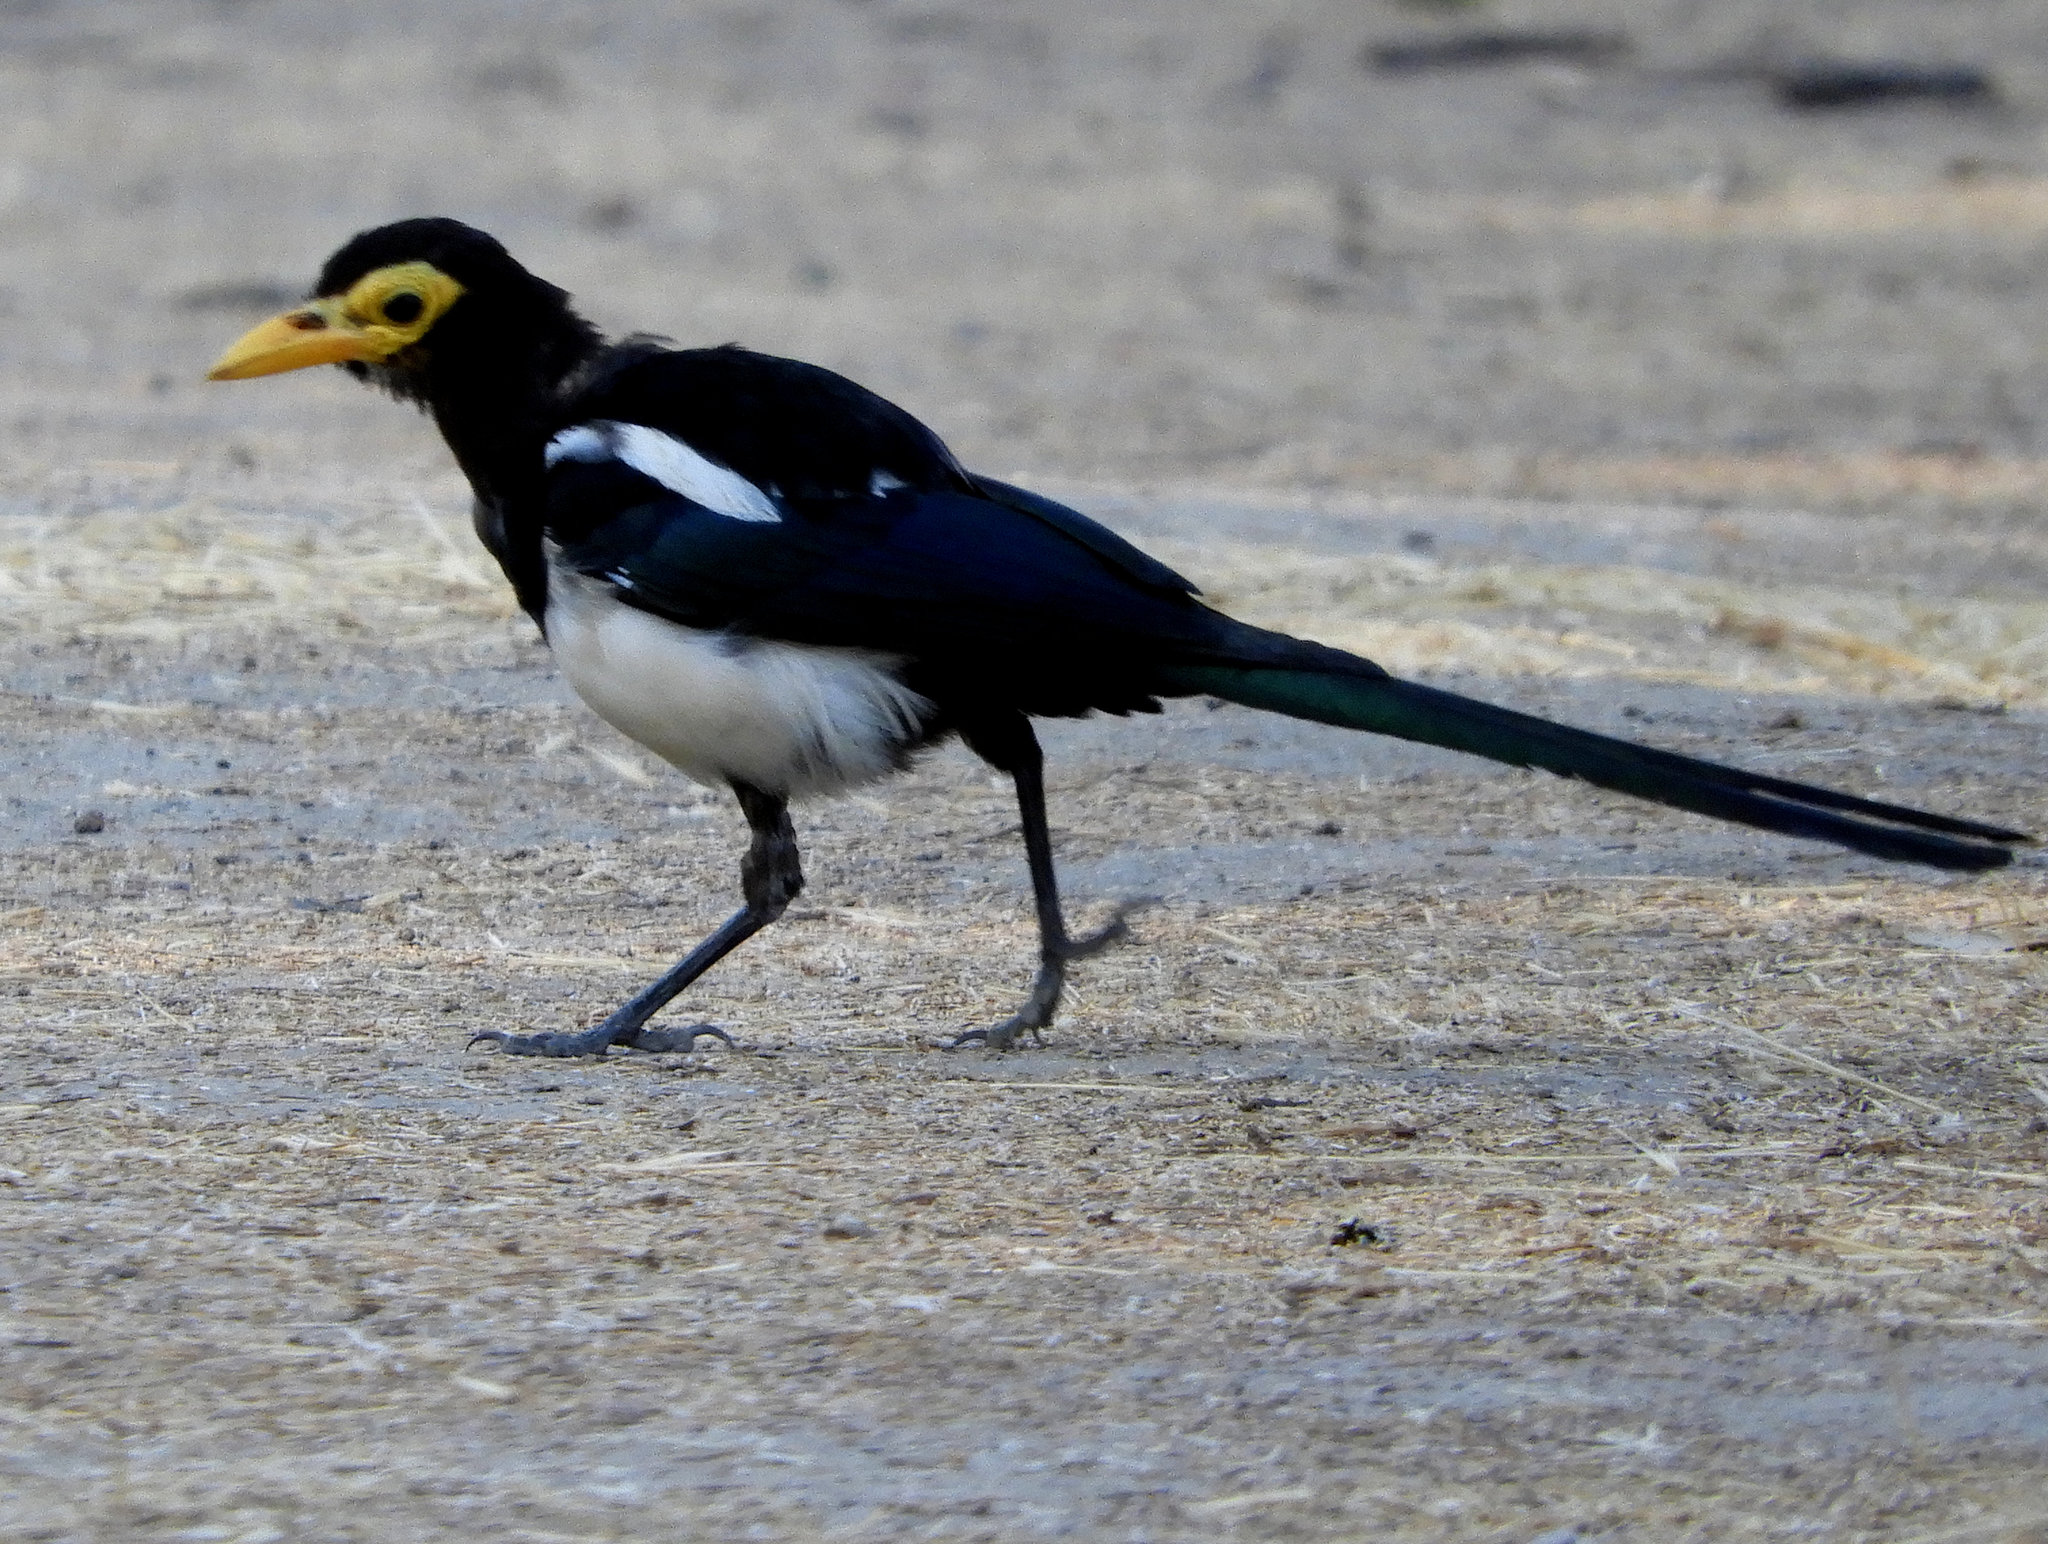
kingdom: Animalia
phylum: Chordata
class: Aves
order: Passeriformes
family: Corvidae
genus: Pica
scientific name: Pica nuttalli
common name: Yellow-billed magpie
